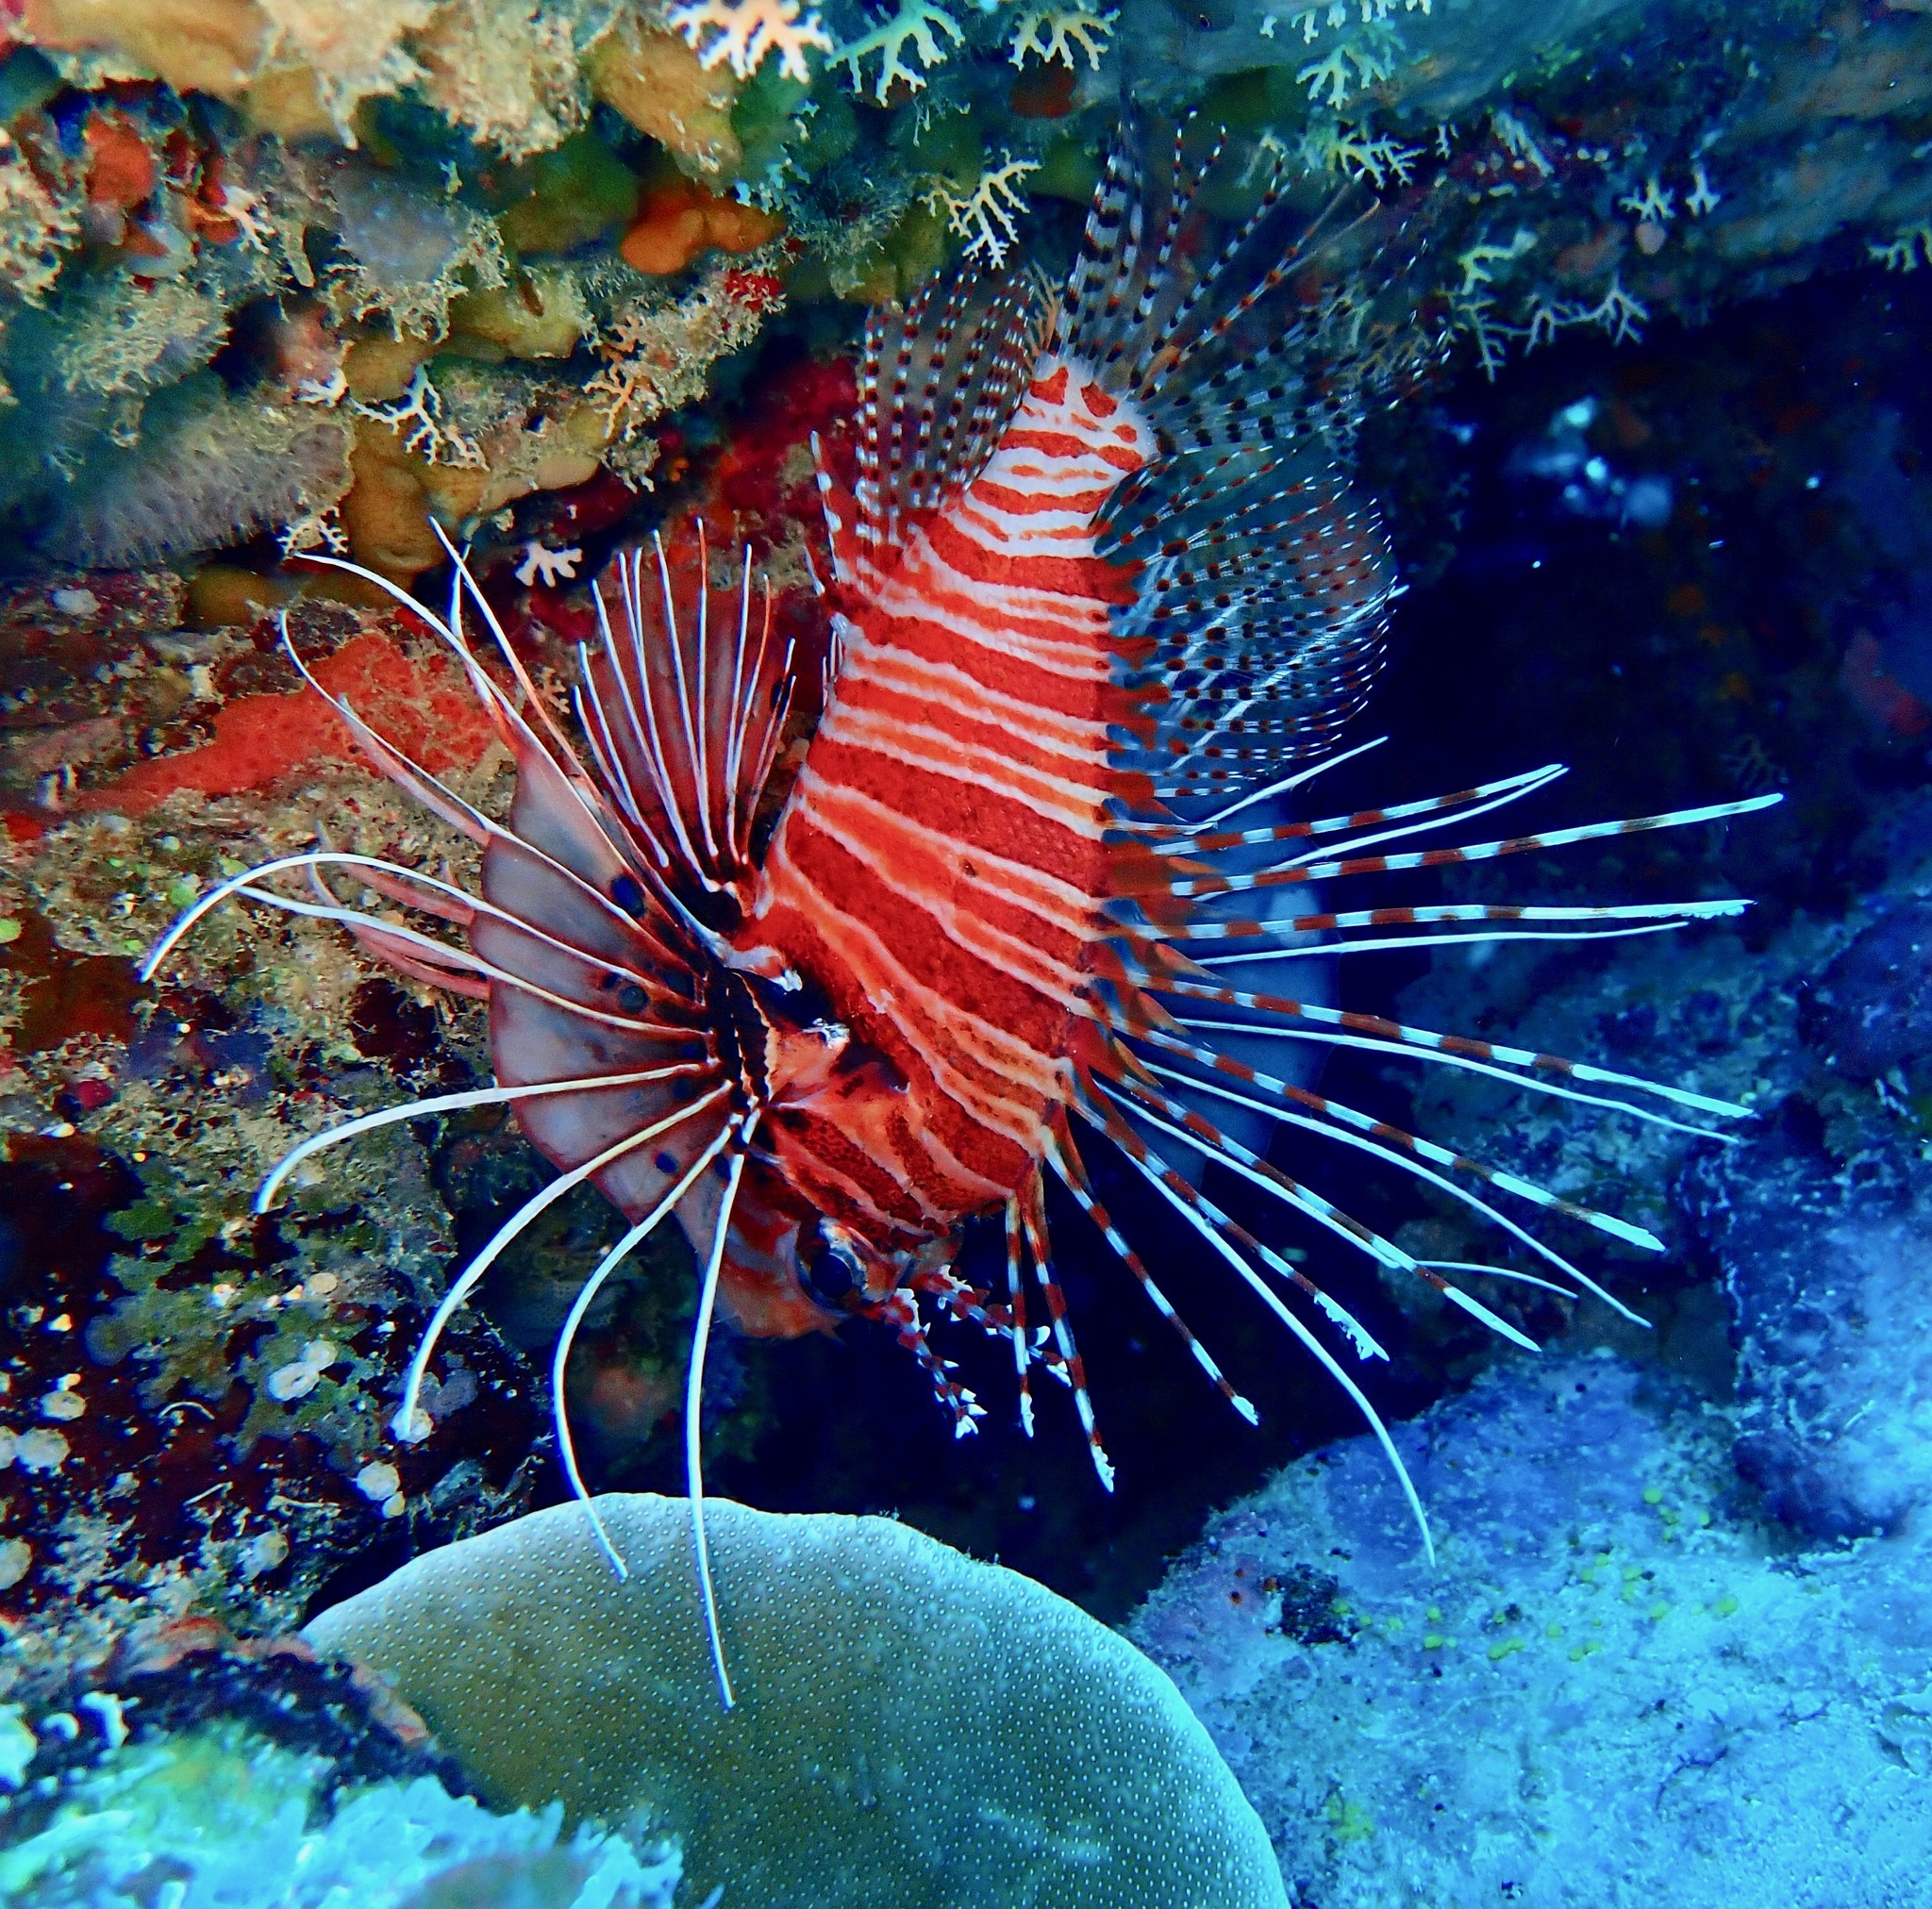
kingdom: Animalia
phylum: Chordata
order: Scorpaeniformes
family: Scorpaenidae
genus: Pterois
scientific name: Pterois antennata
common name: Spotfin lionfish
